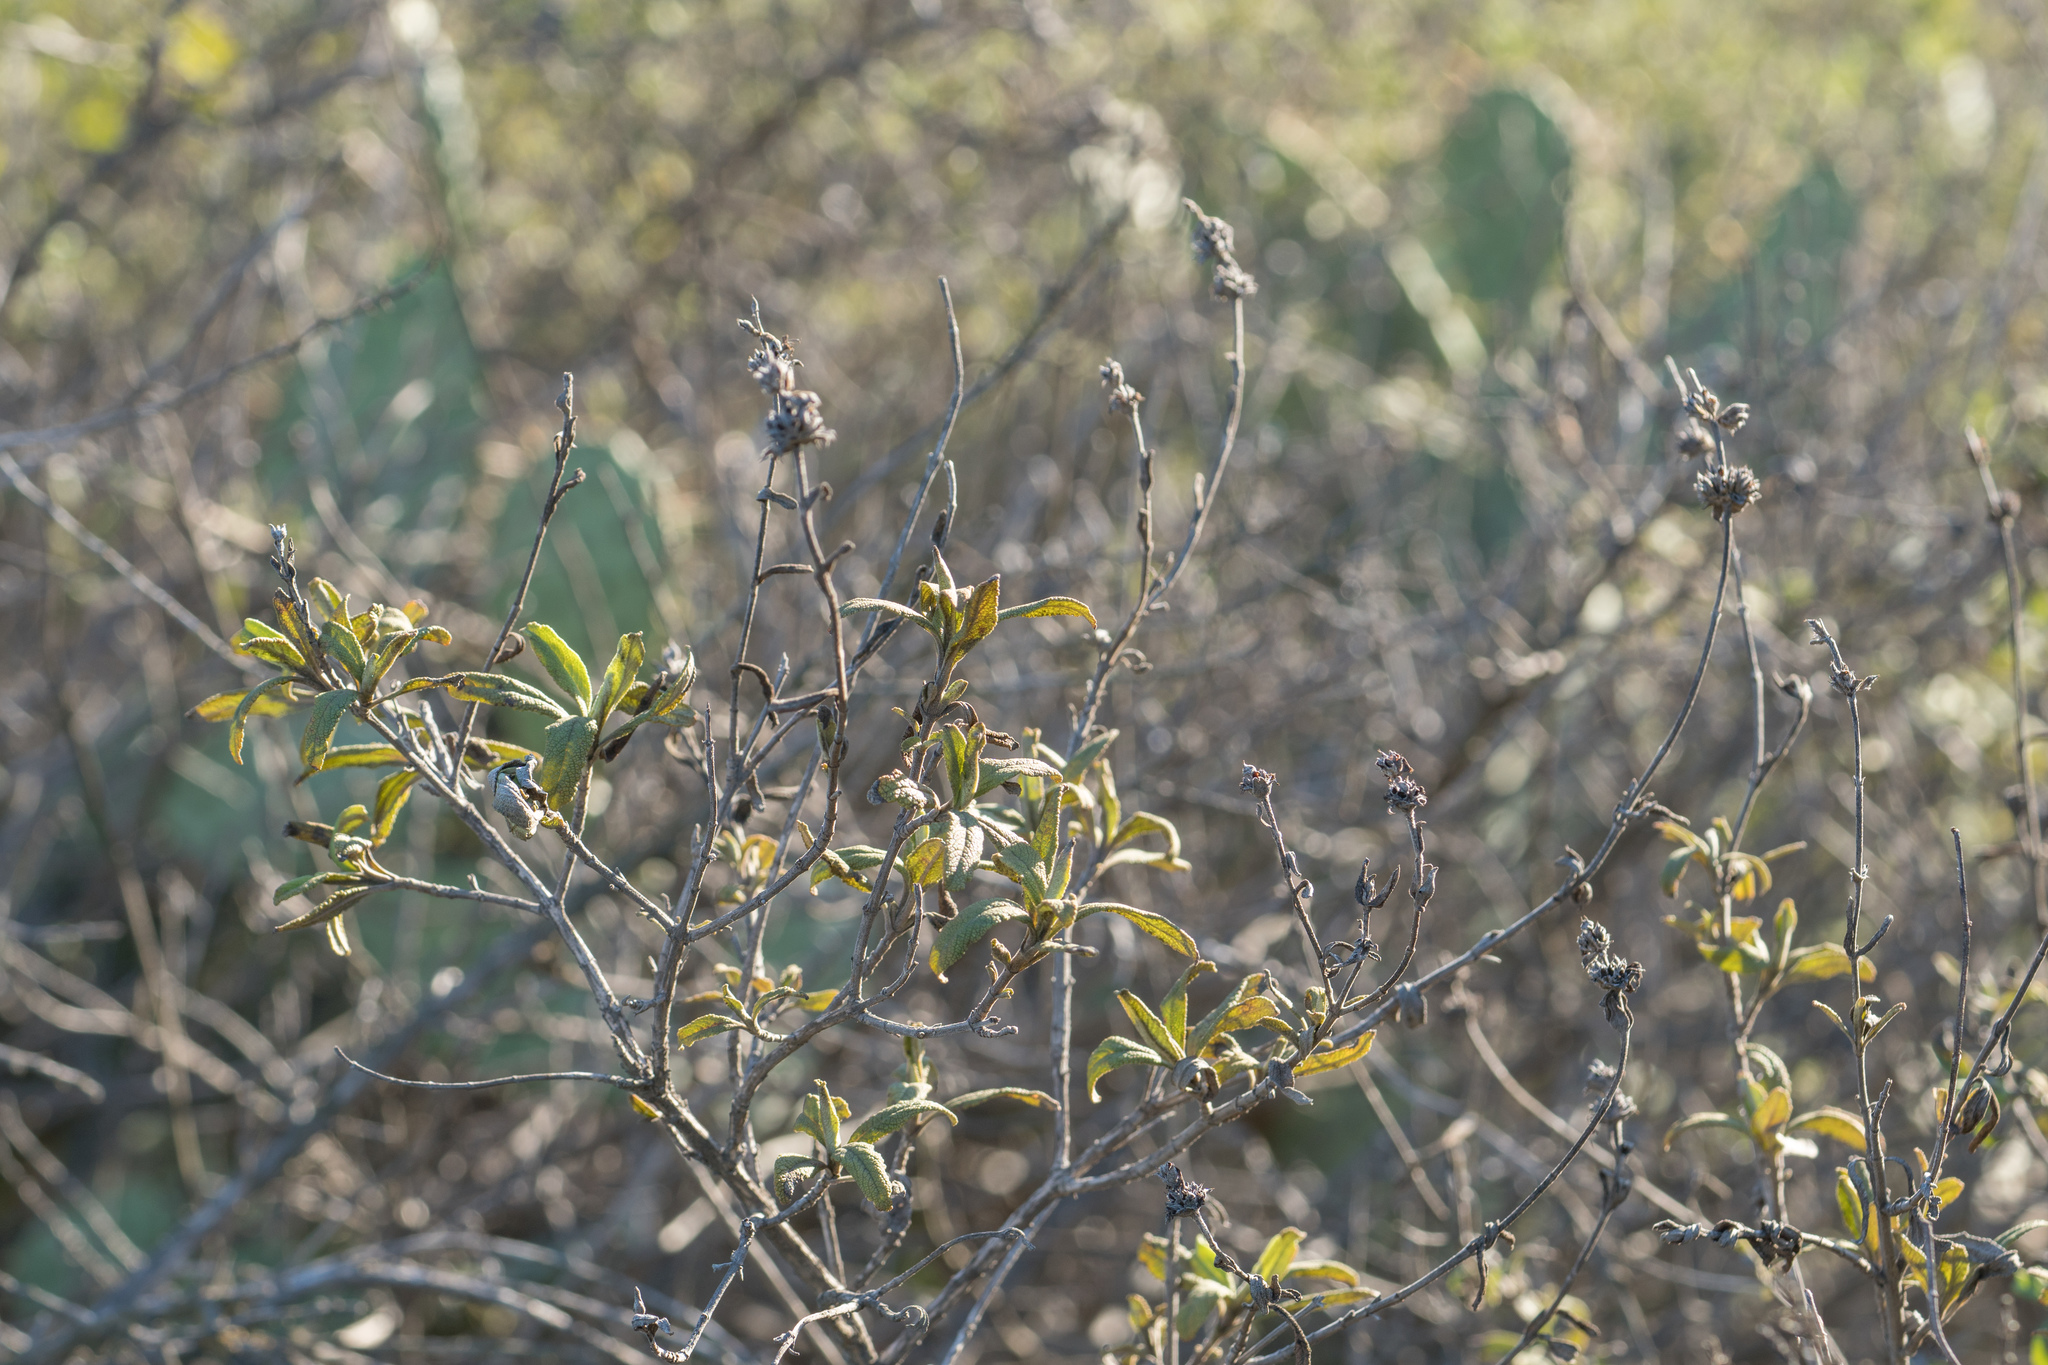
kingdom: Plantae
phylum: Tracheophyta
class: Magnoliopsida
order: Lamiales
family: Lamiaceae
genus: Salvia
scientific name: Salvia mellifera
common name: Black sage
